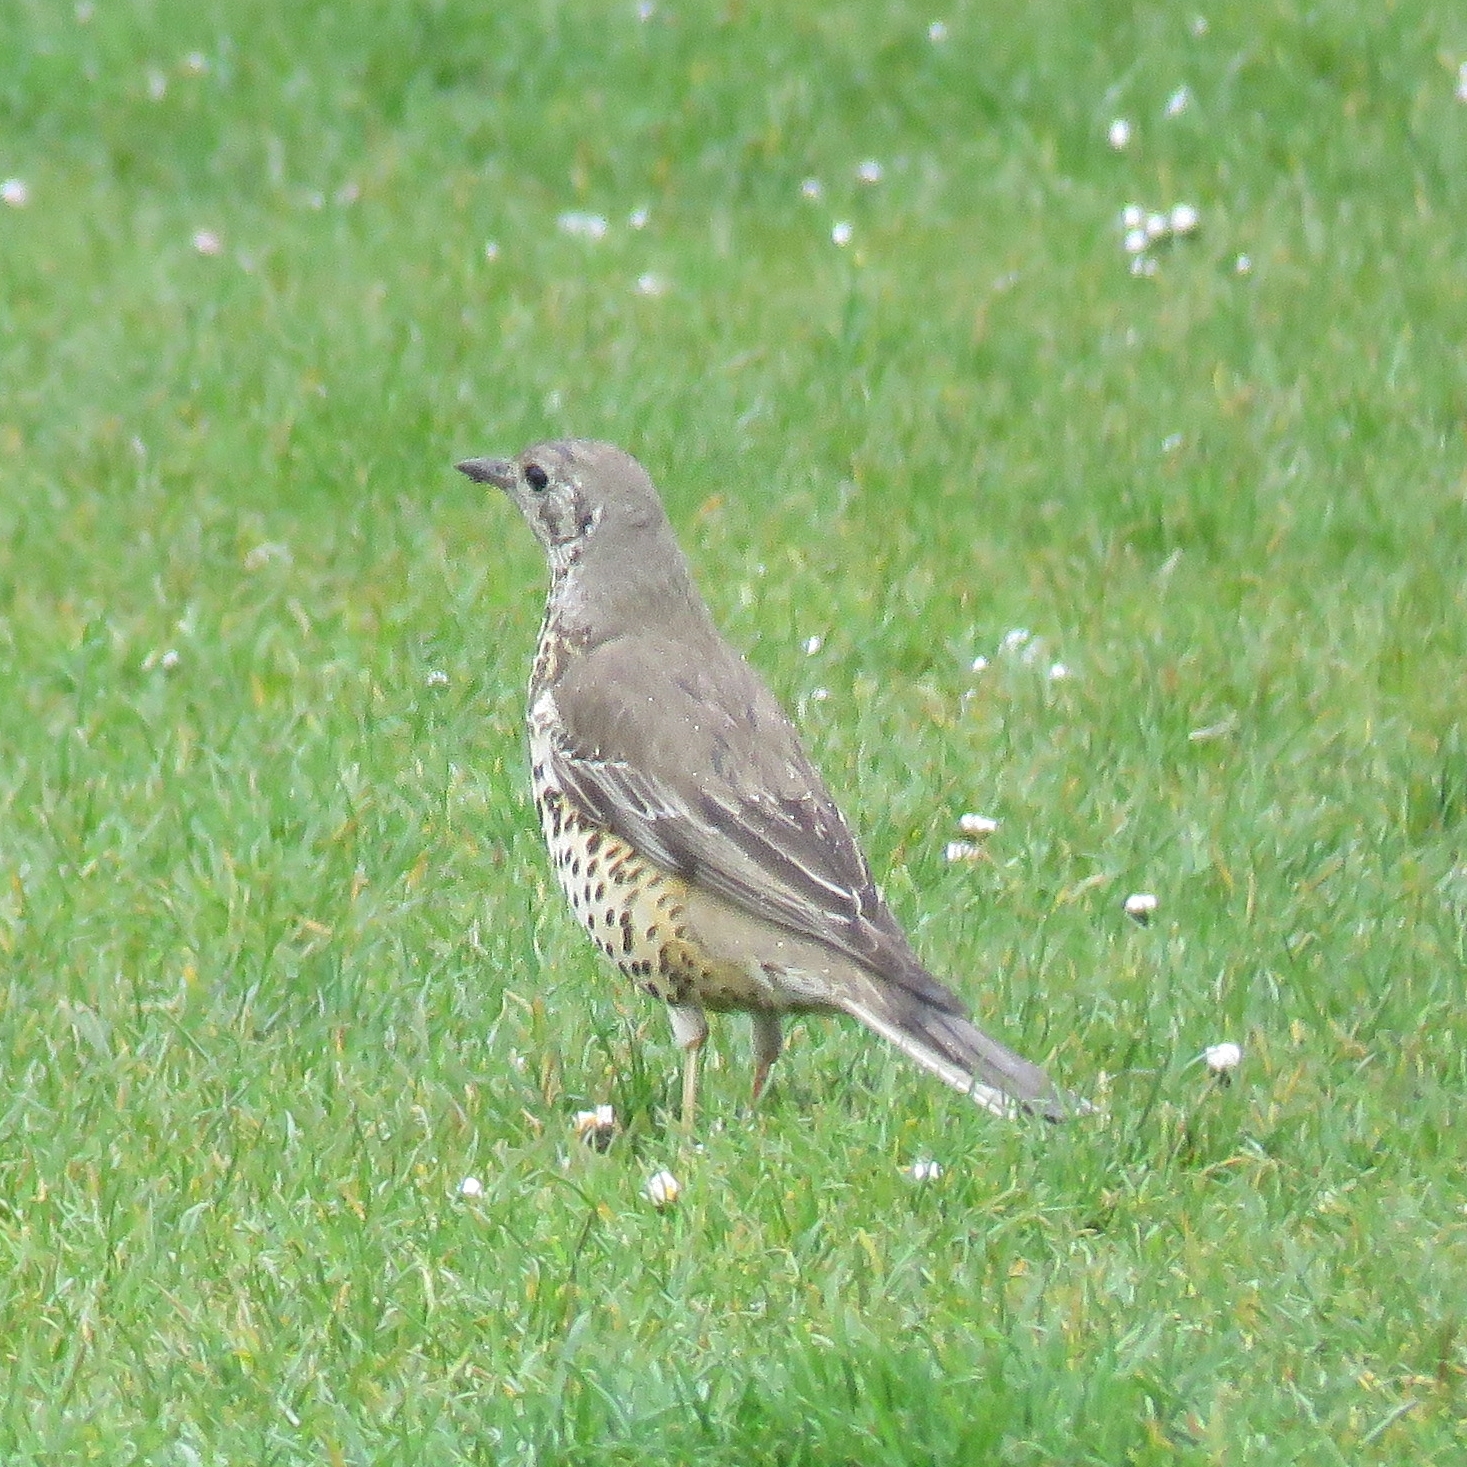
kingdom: Animalia
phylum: Chordata
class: Aves
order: Passeriformes
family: Turdidae
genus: Turdus
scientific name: Turdus viscivorus
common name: Mistle thrush
